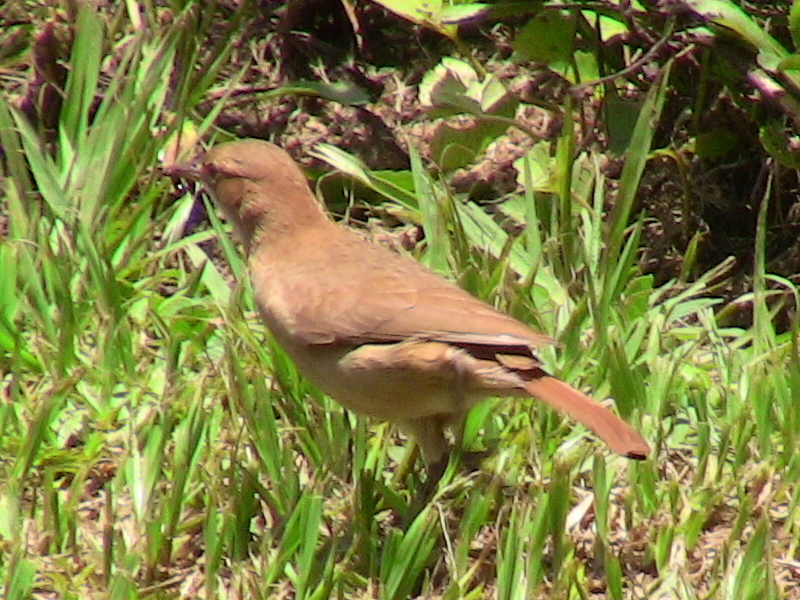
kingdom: Animalia
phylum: Chordata
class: Aves
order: Passeriformes
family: Furnariidae
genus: Furnarius
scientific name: Furnarius rufus
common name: Rufous hornero
